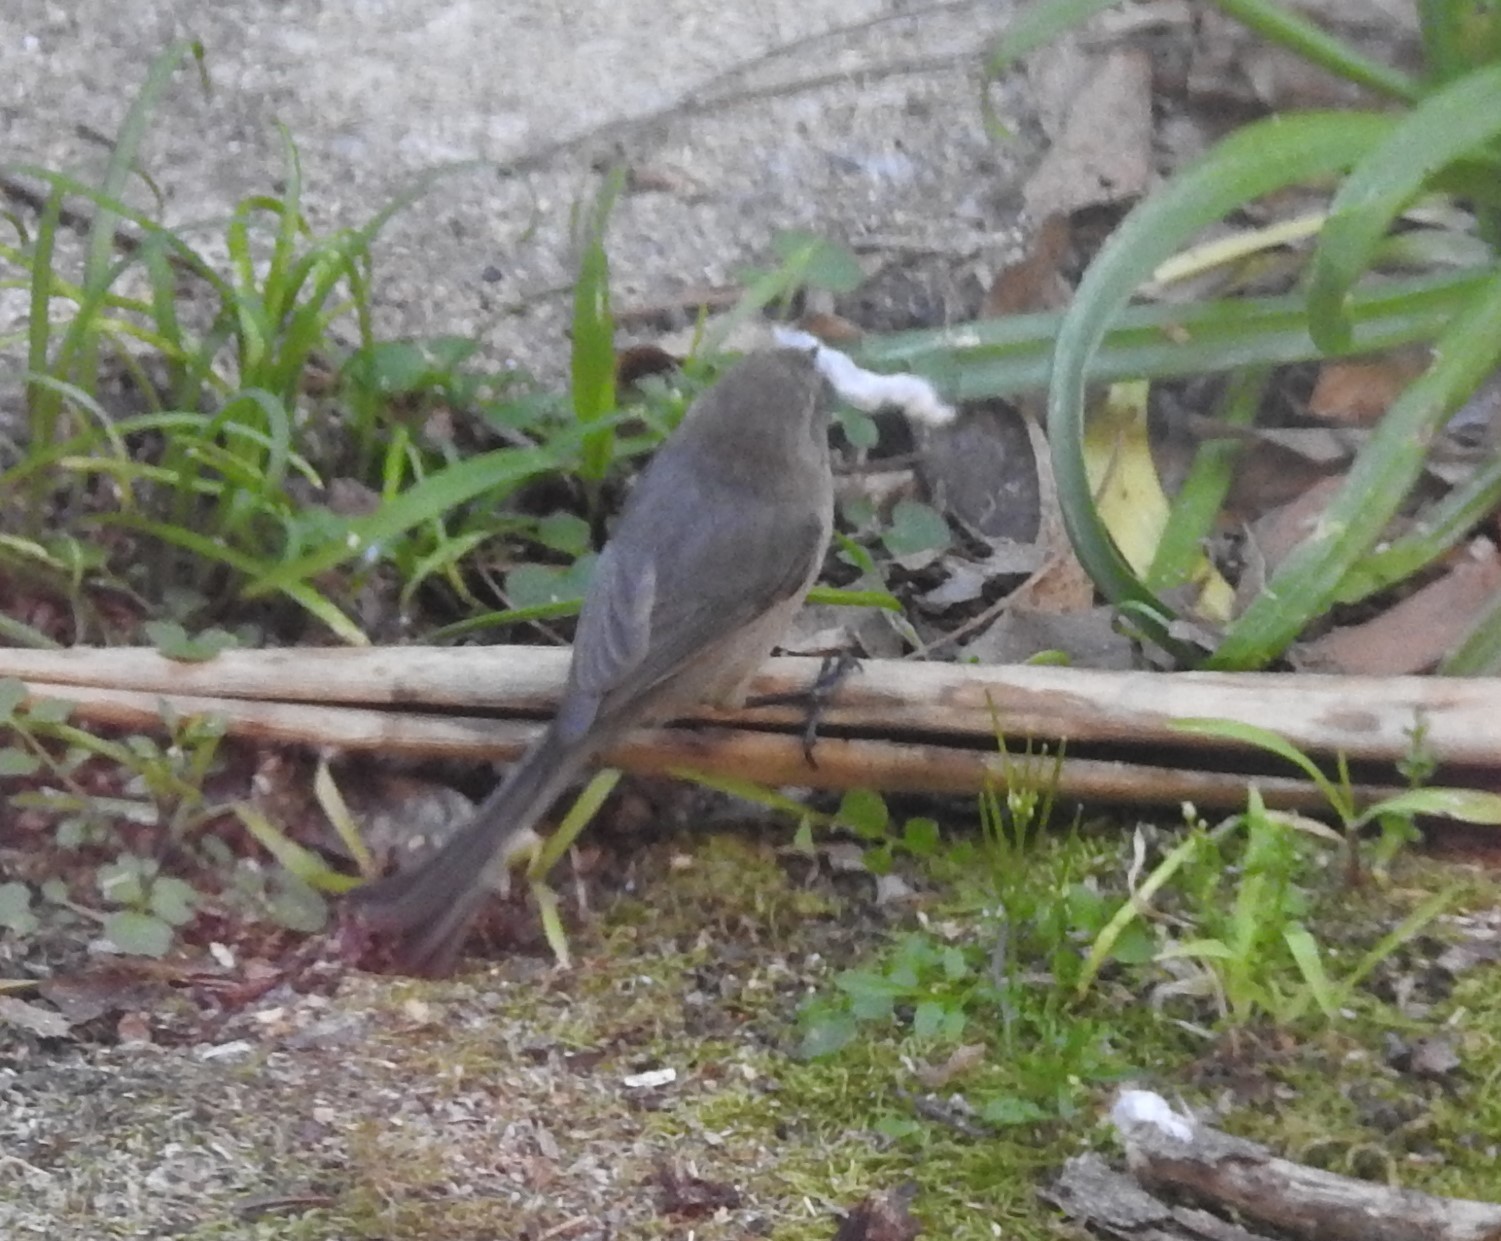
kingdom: Animalia
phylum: Chordata
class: Aves
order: Passeriformes
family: Aegithalidae
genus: Psaltriparus
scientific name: Psaltriparus minimus
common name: American bushtit
